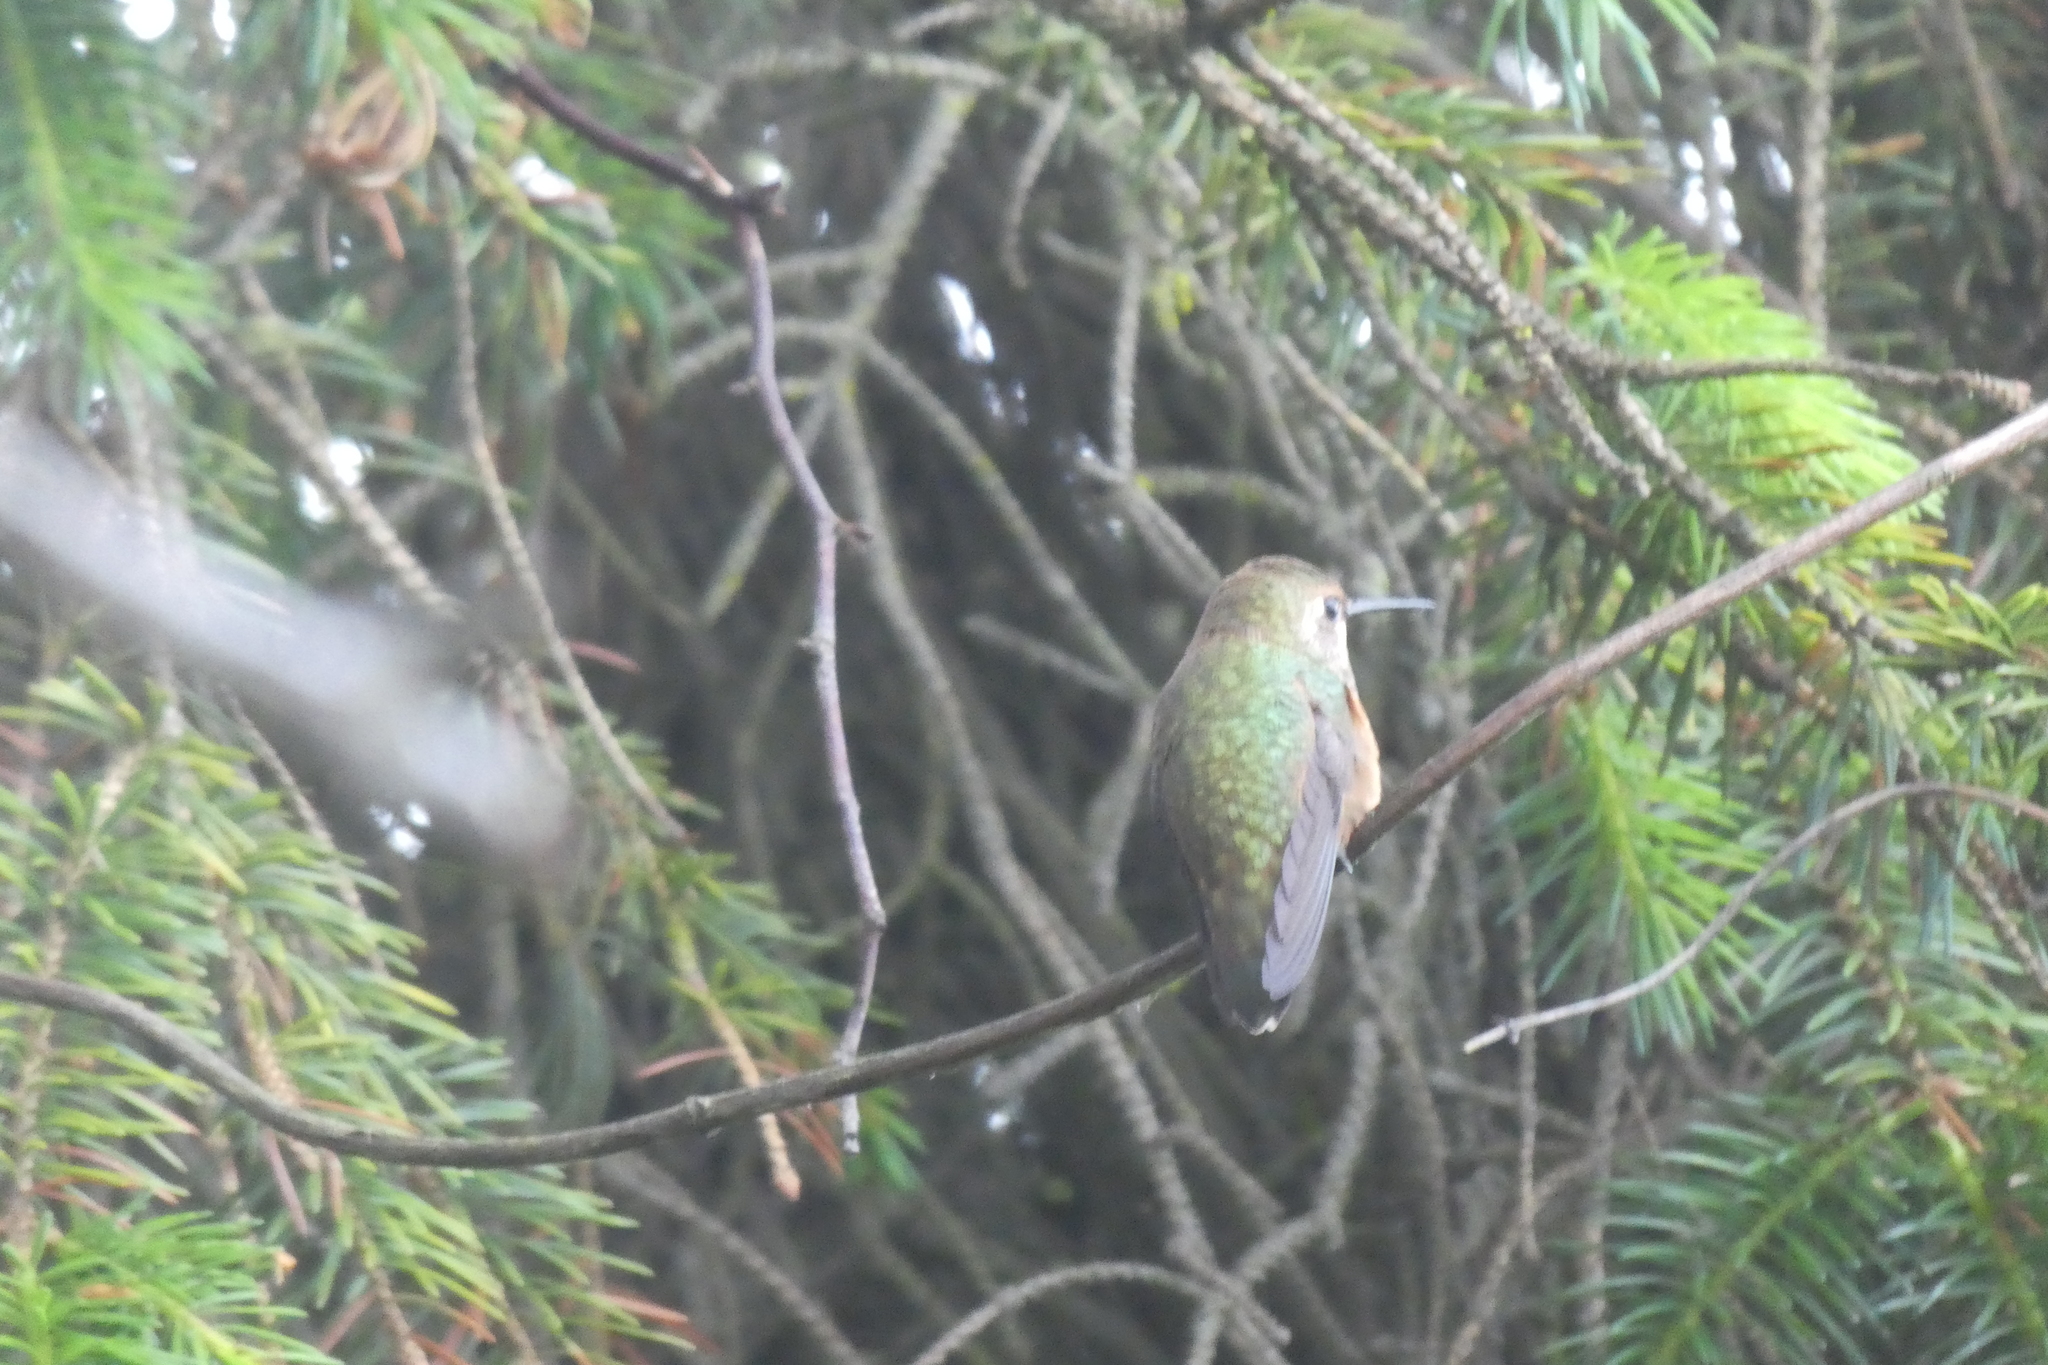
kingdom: Animalia
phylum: Chordata
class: Aves
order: Apodiformes
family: Trochilidae
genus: Selasphorus
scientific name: Selasphorus rufus
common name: Rufous hummingbird
